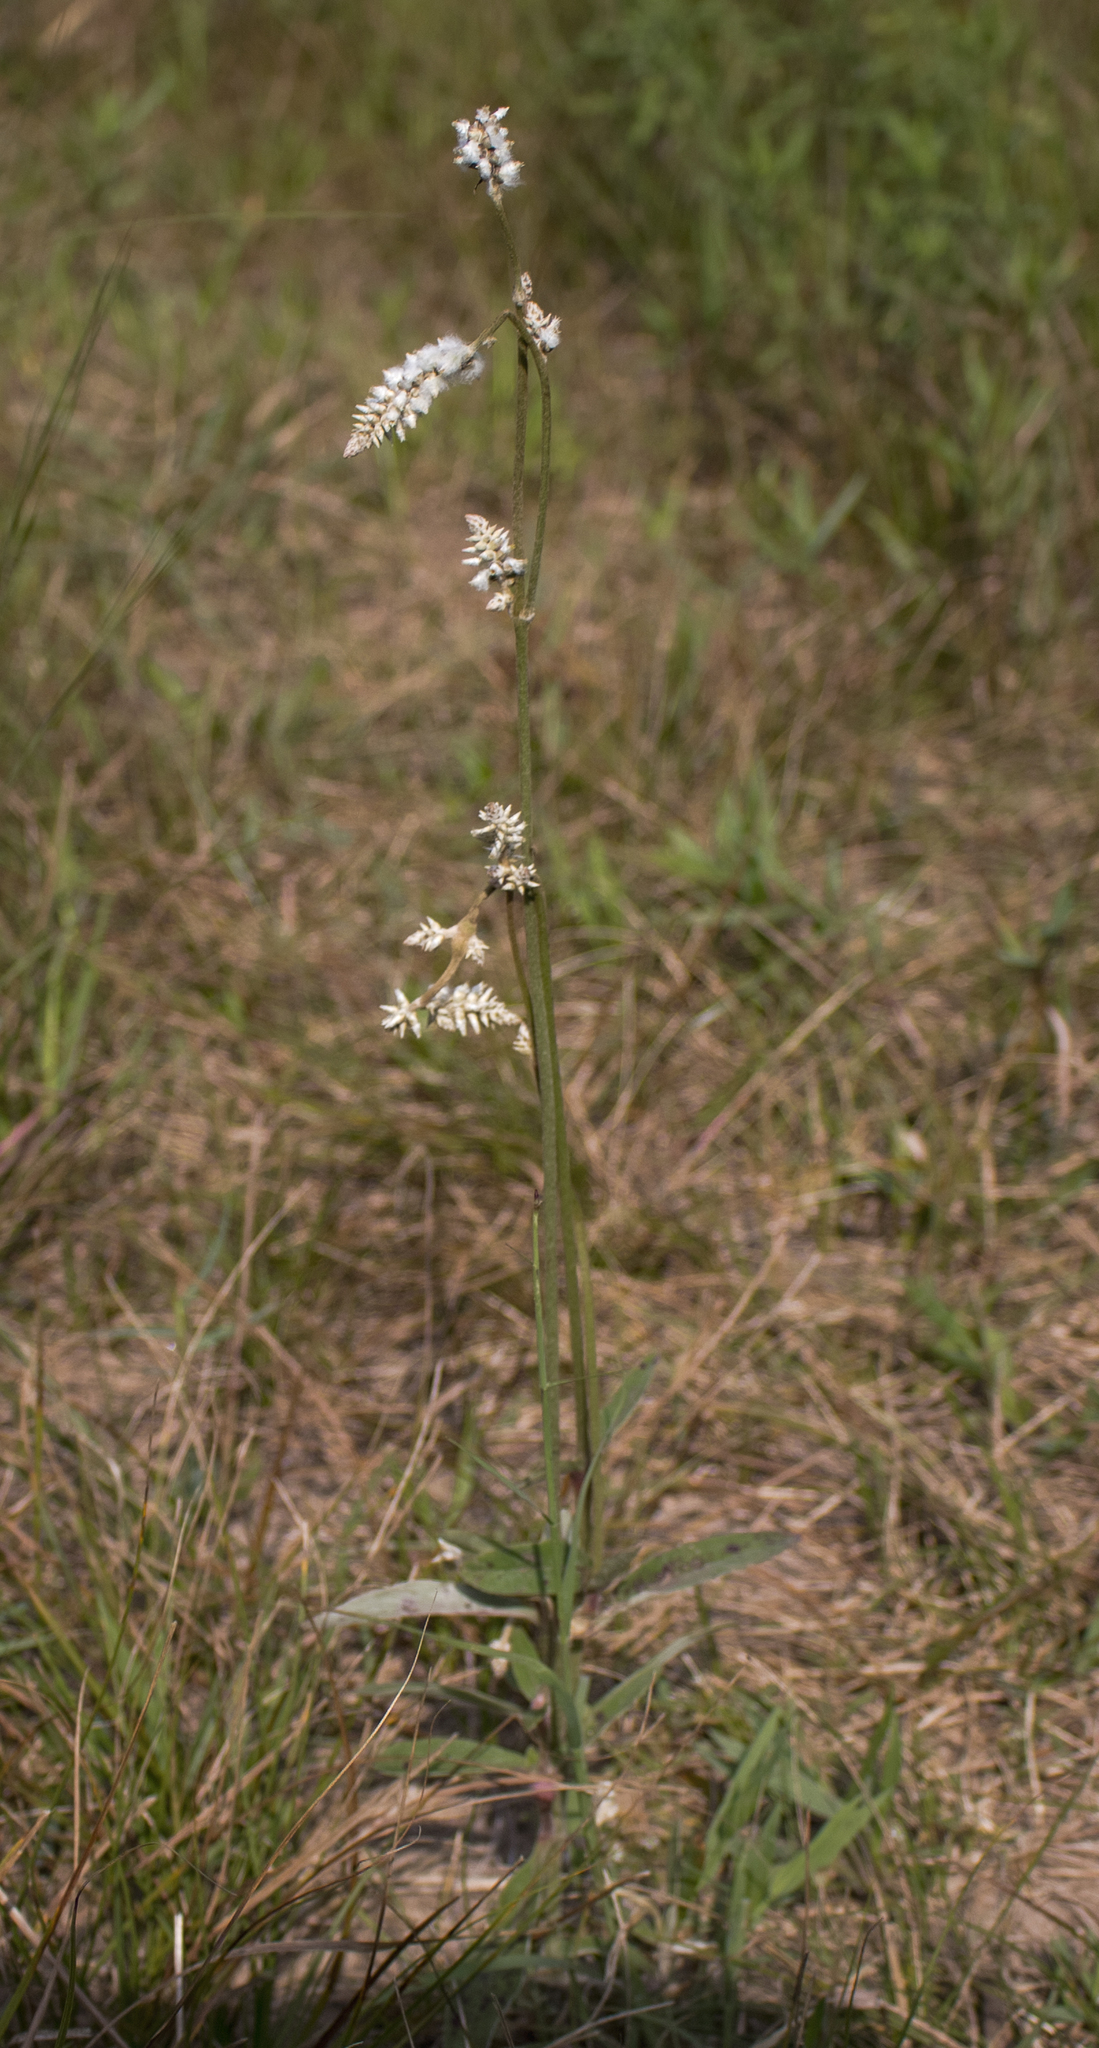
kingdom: Plantae
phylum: Tracheophyta
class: Magnoliopsida
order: Caryophyllales
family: Amaranthaceae
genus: Froelichia
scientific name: Froelichia floridana
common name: Florida snake-cotton
